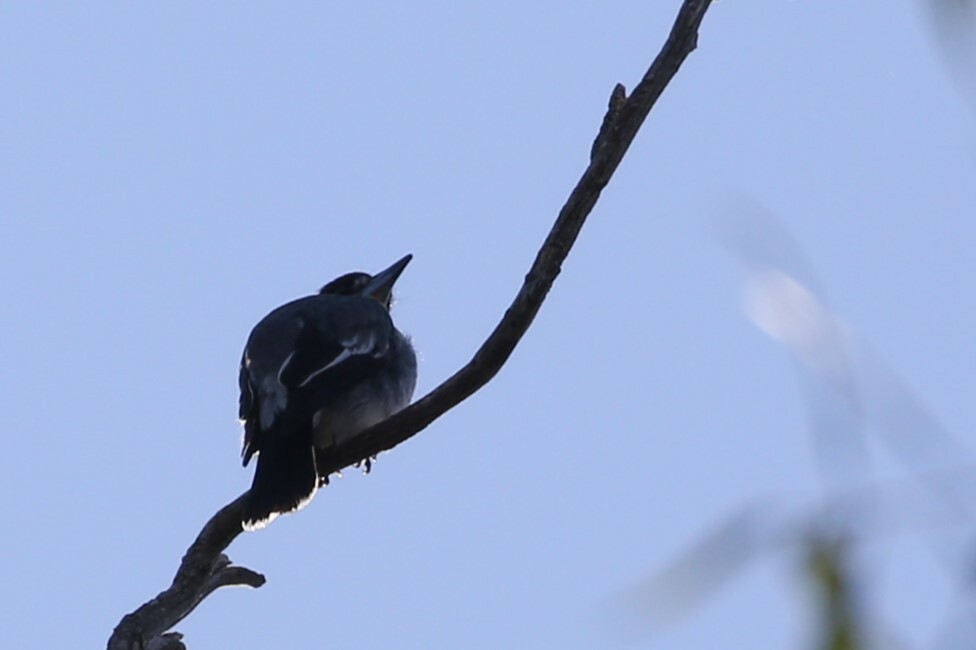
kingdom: Animalia
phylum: Chordata
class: Aves
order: Passeriformes
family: Cracticidae
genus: Cracticus
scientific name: Cracticus torquatus
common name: Grey butcherbird
